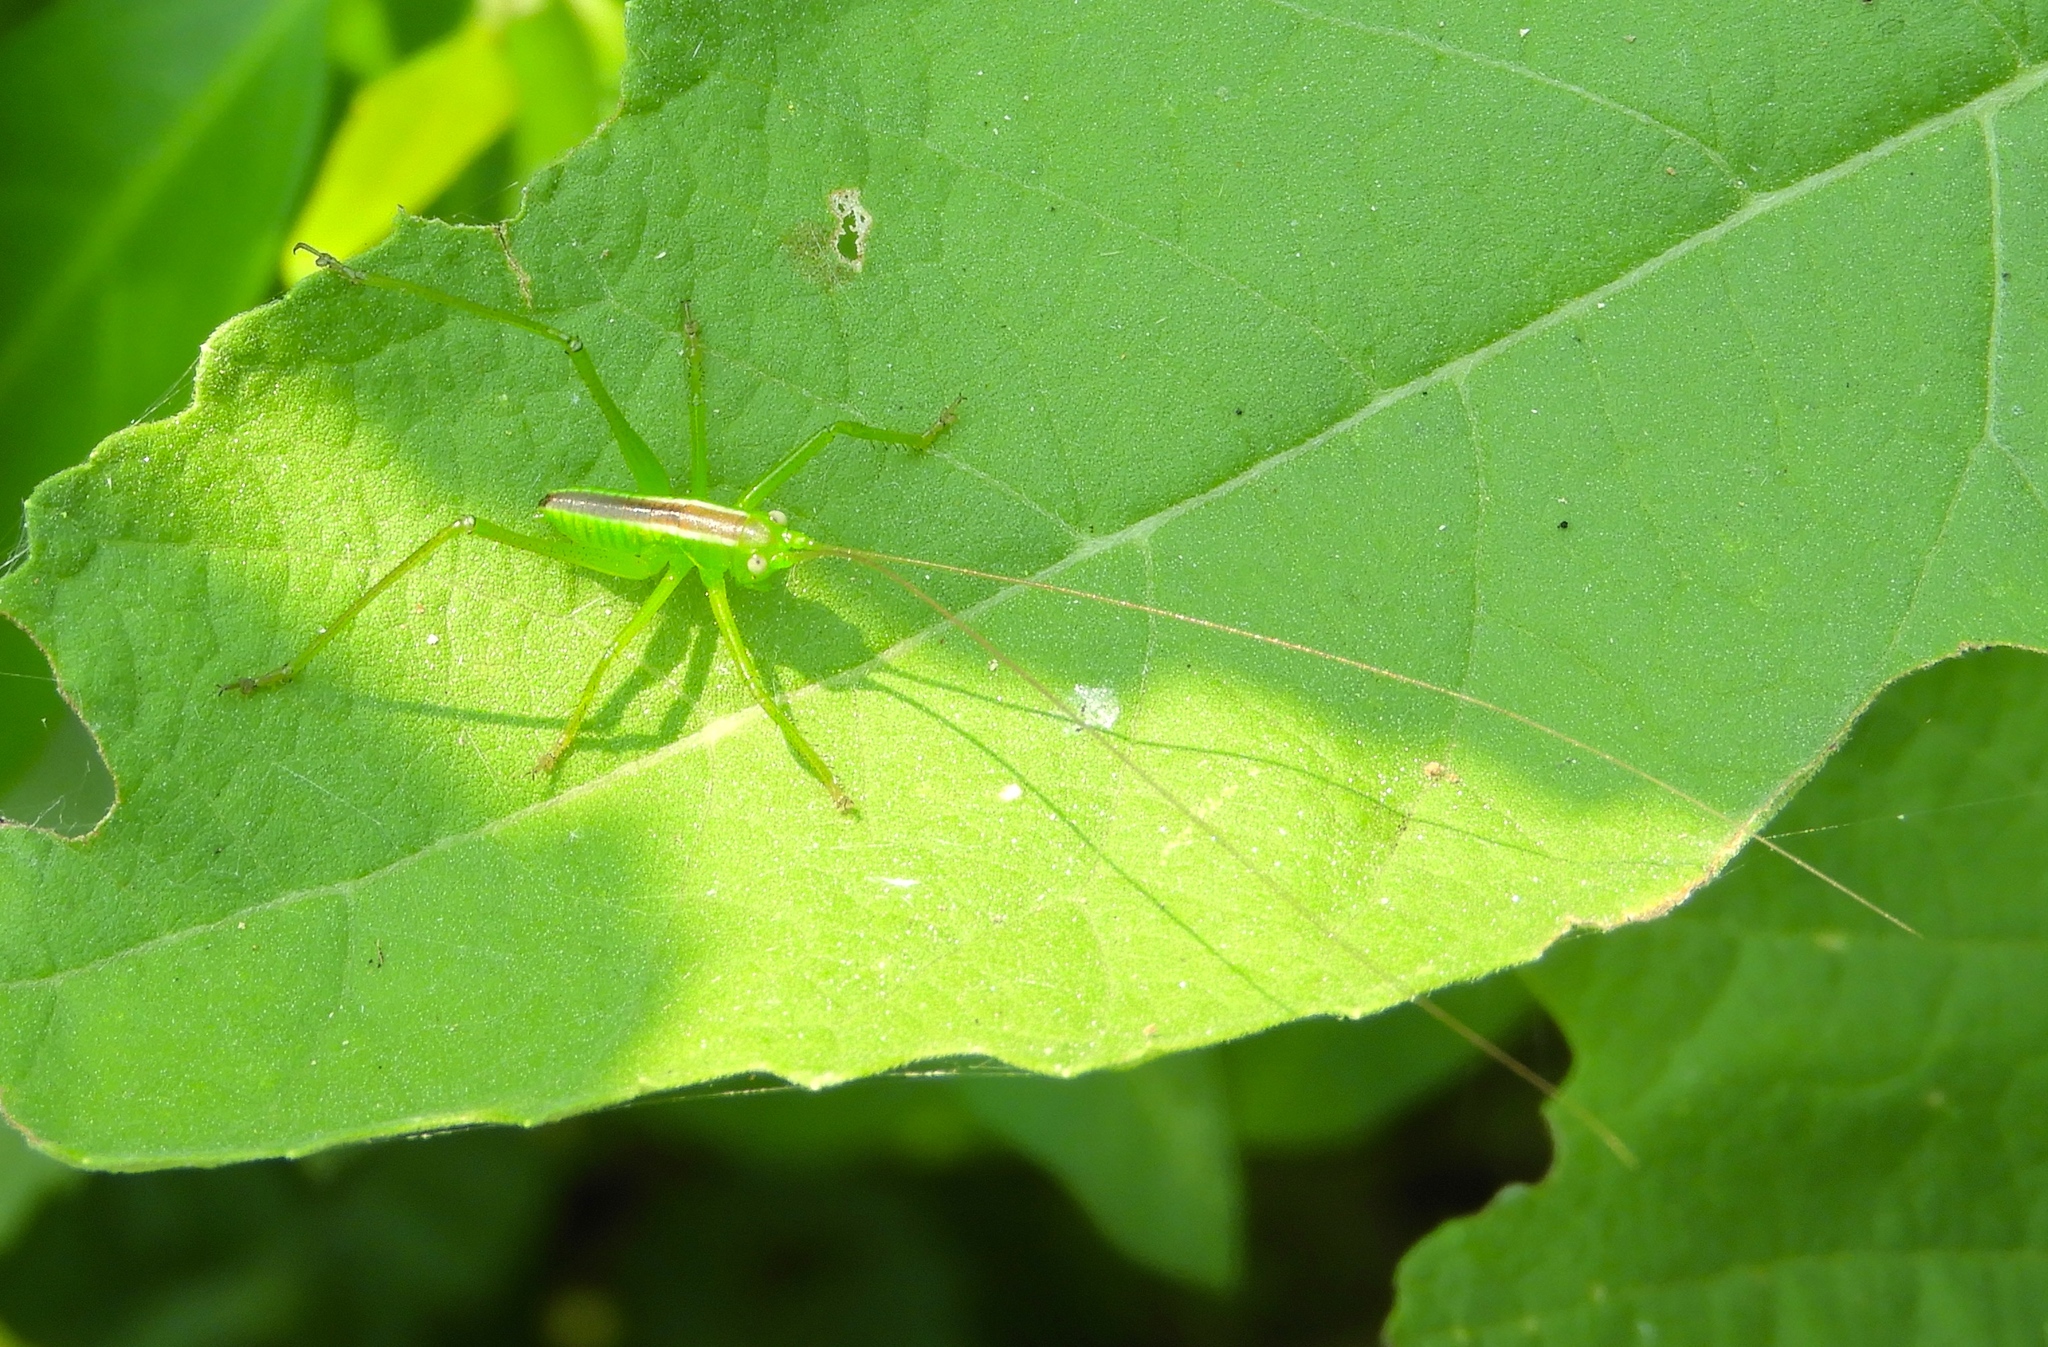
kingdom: Animalia
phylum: Arthropoda
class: Insecta
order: Orthoptera
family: Tettigoniidae
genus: Neobarrettia
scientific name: Neobarrettia sinaloae
